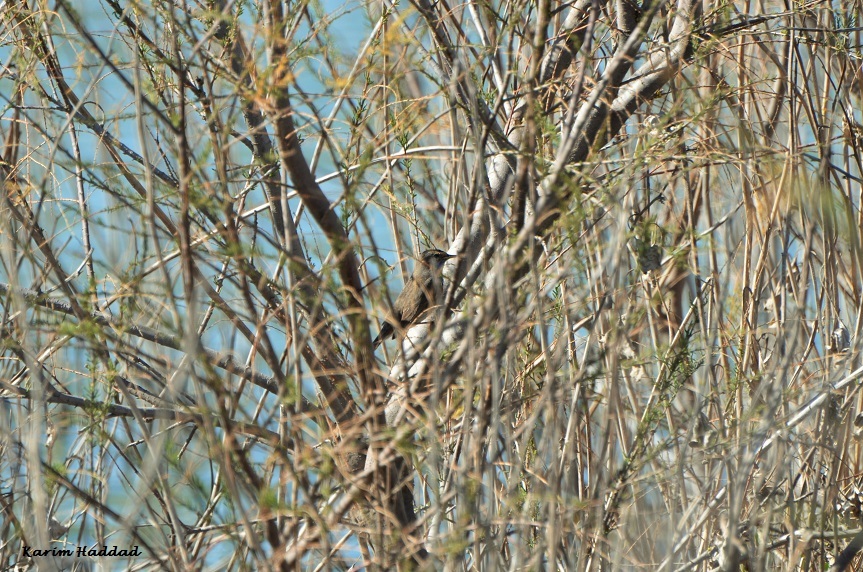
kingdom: Animalia
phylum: Chordata
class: Aves
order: Passeriformes
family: Muscicapidae
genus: Luscinia
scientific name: Luscinia svecica
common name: Bluethroat
